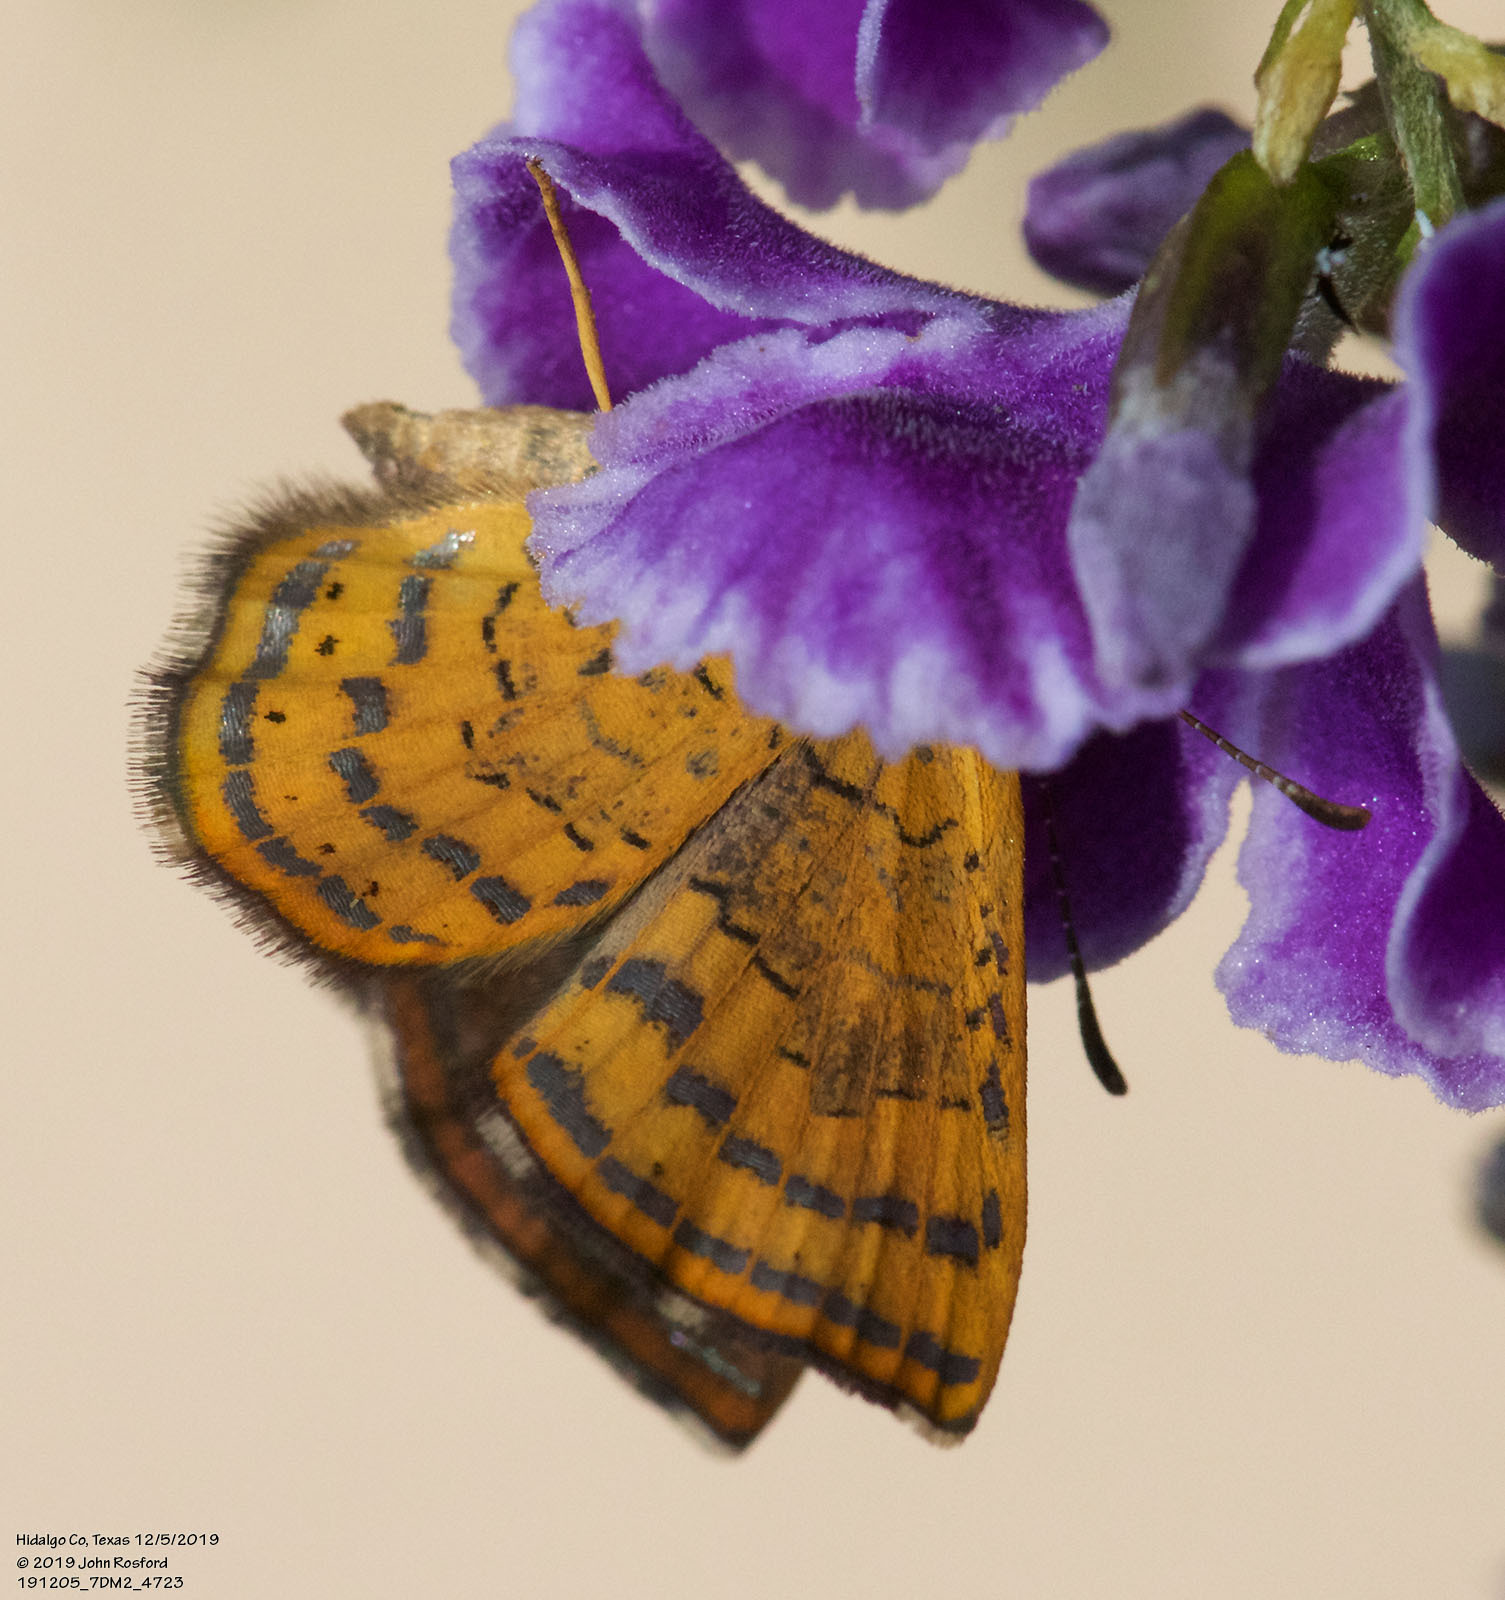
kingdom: Animalia
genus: Calephelis
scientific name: Calephelis nemesis
